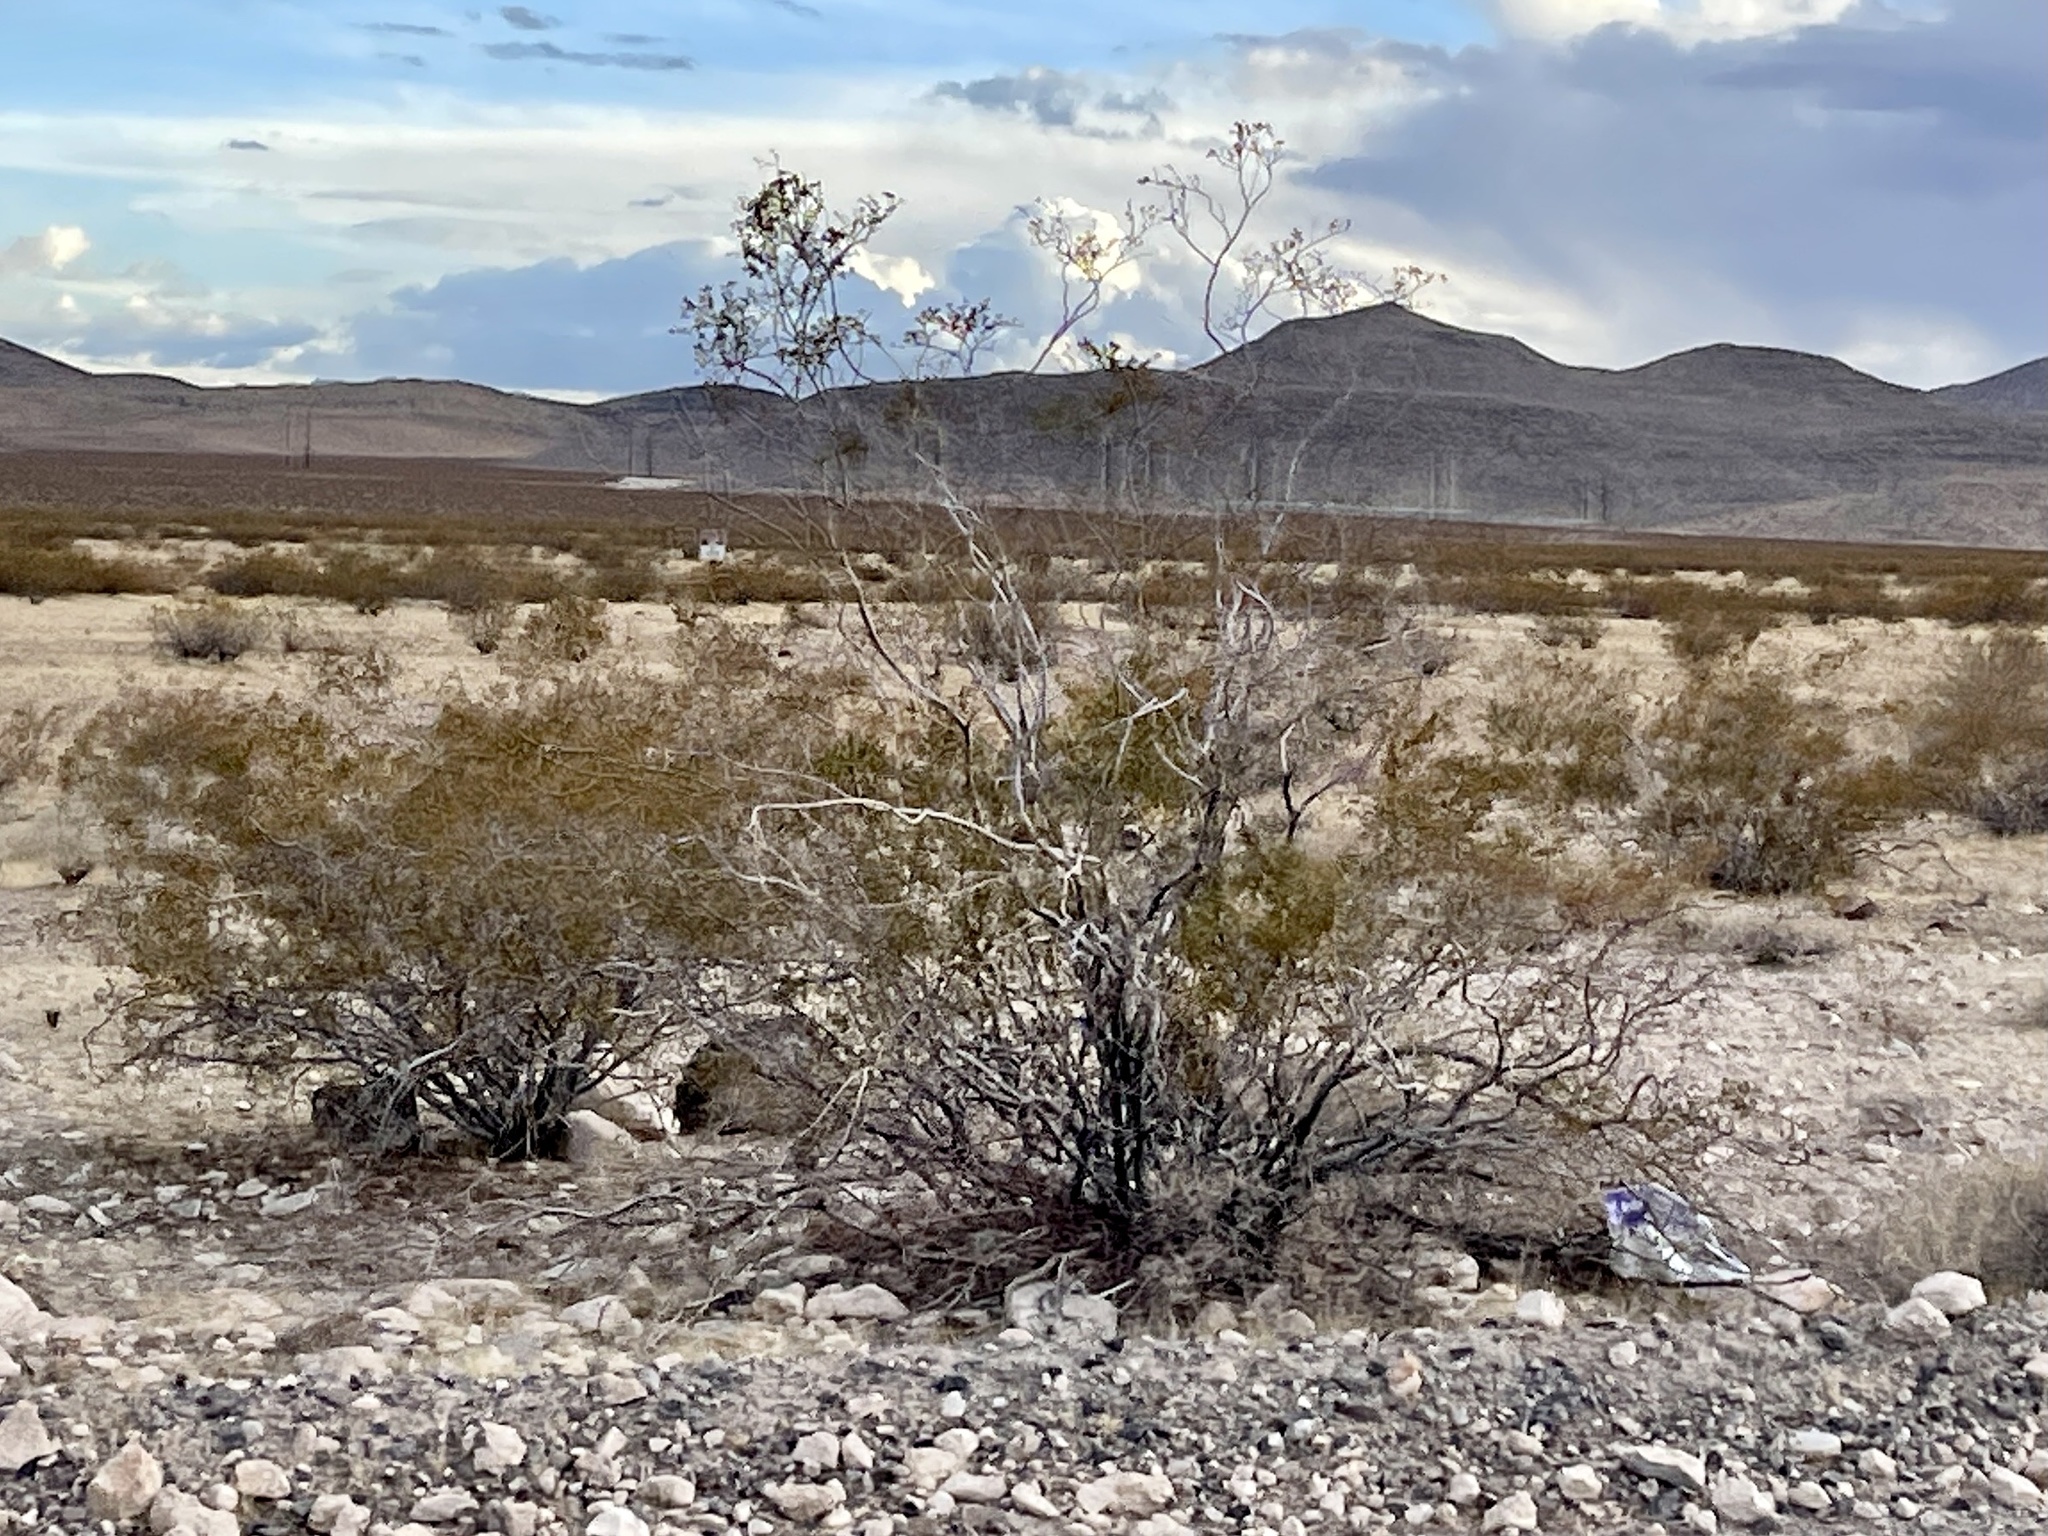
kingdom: Plantae
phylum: Tracheophyta
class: Magnoliopsida
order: Zygophyllales
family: Zygophyllaceae
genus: Larrea
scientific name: Larrea tridentata
